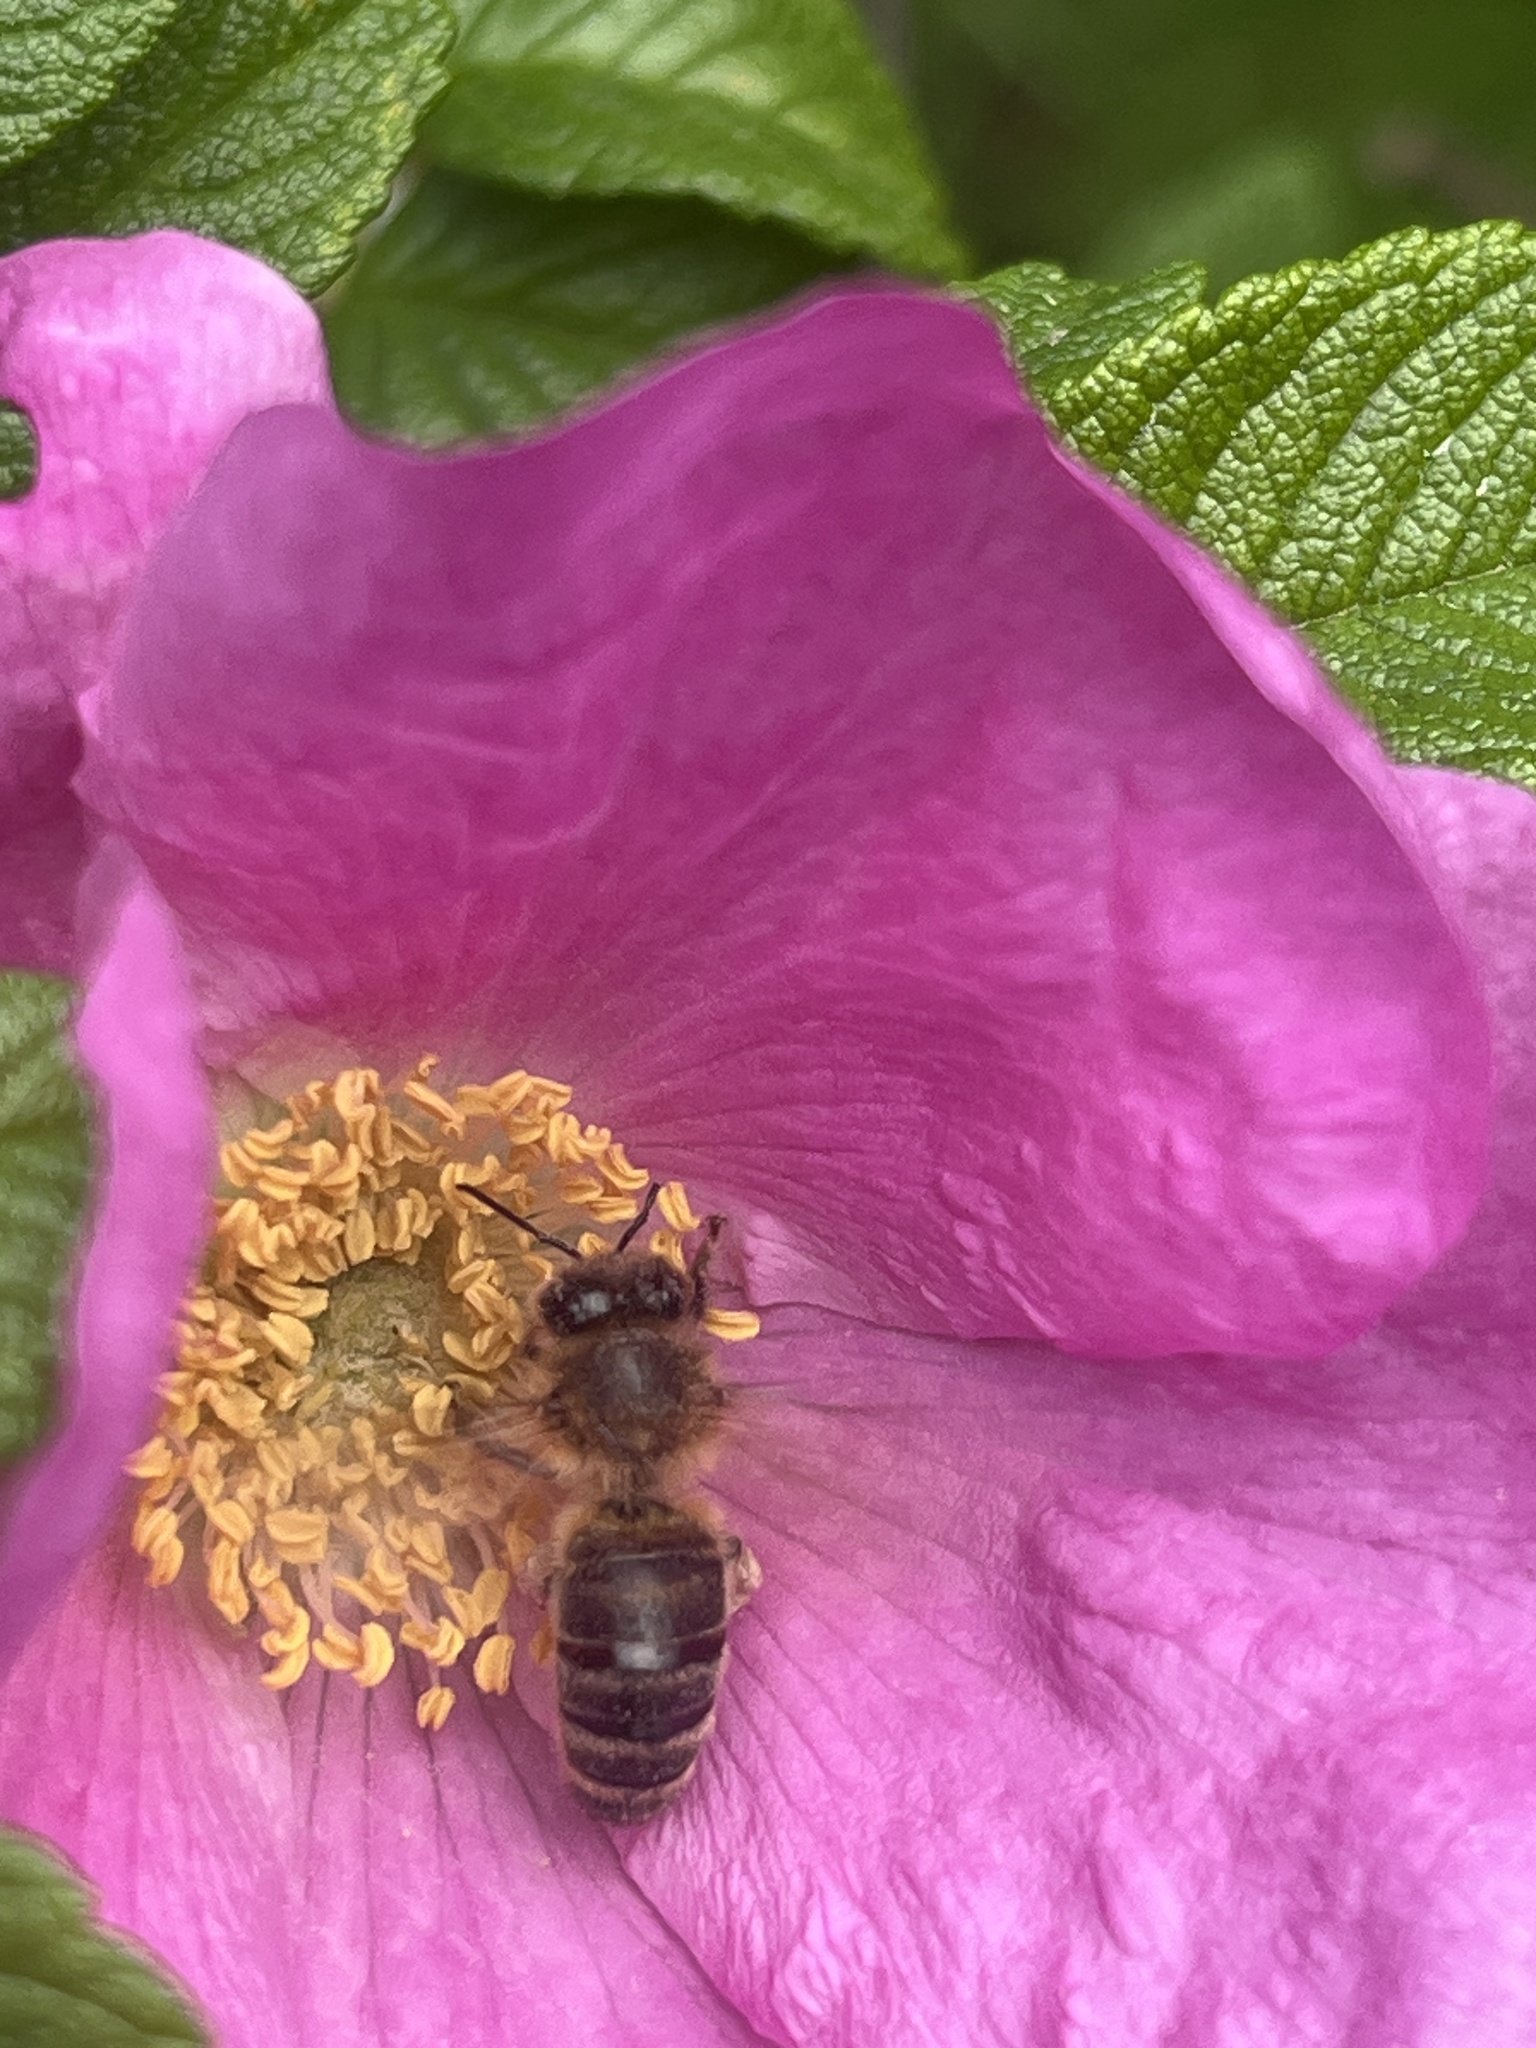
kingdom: Animalia
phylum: Arthropoda
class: Insecta
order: Hymenoptera
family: Apidae
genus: Apis
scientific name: Apis mellifera
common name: Honey bee
